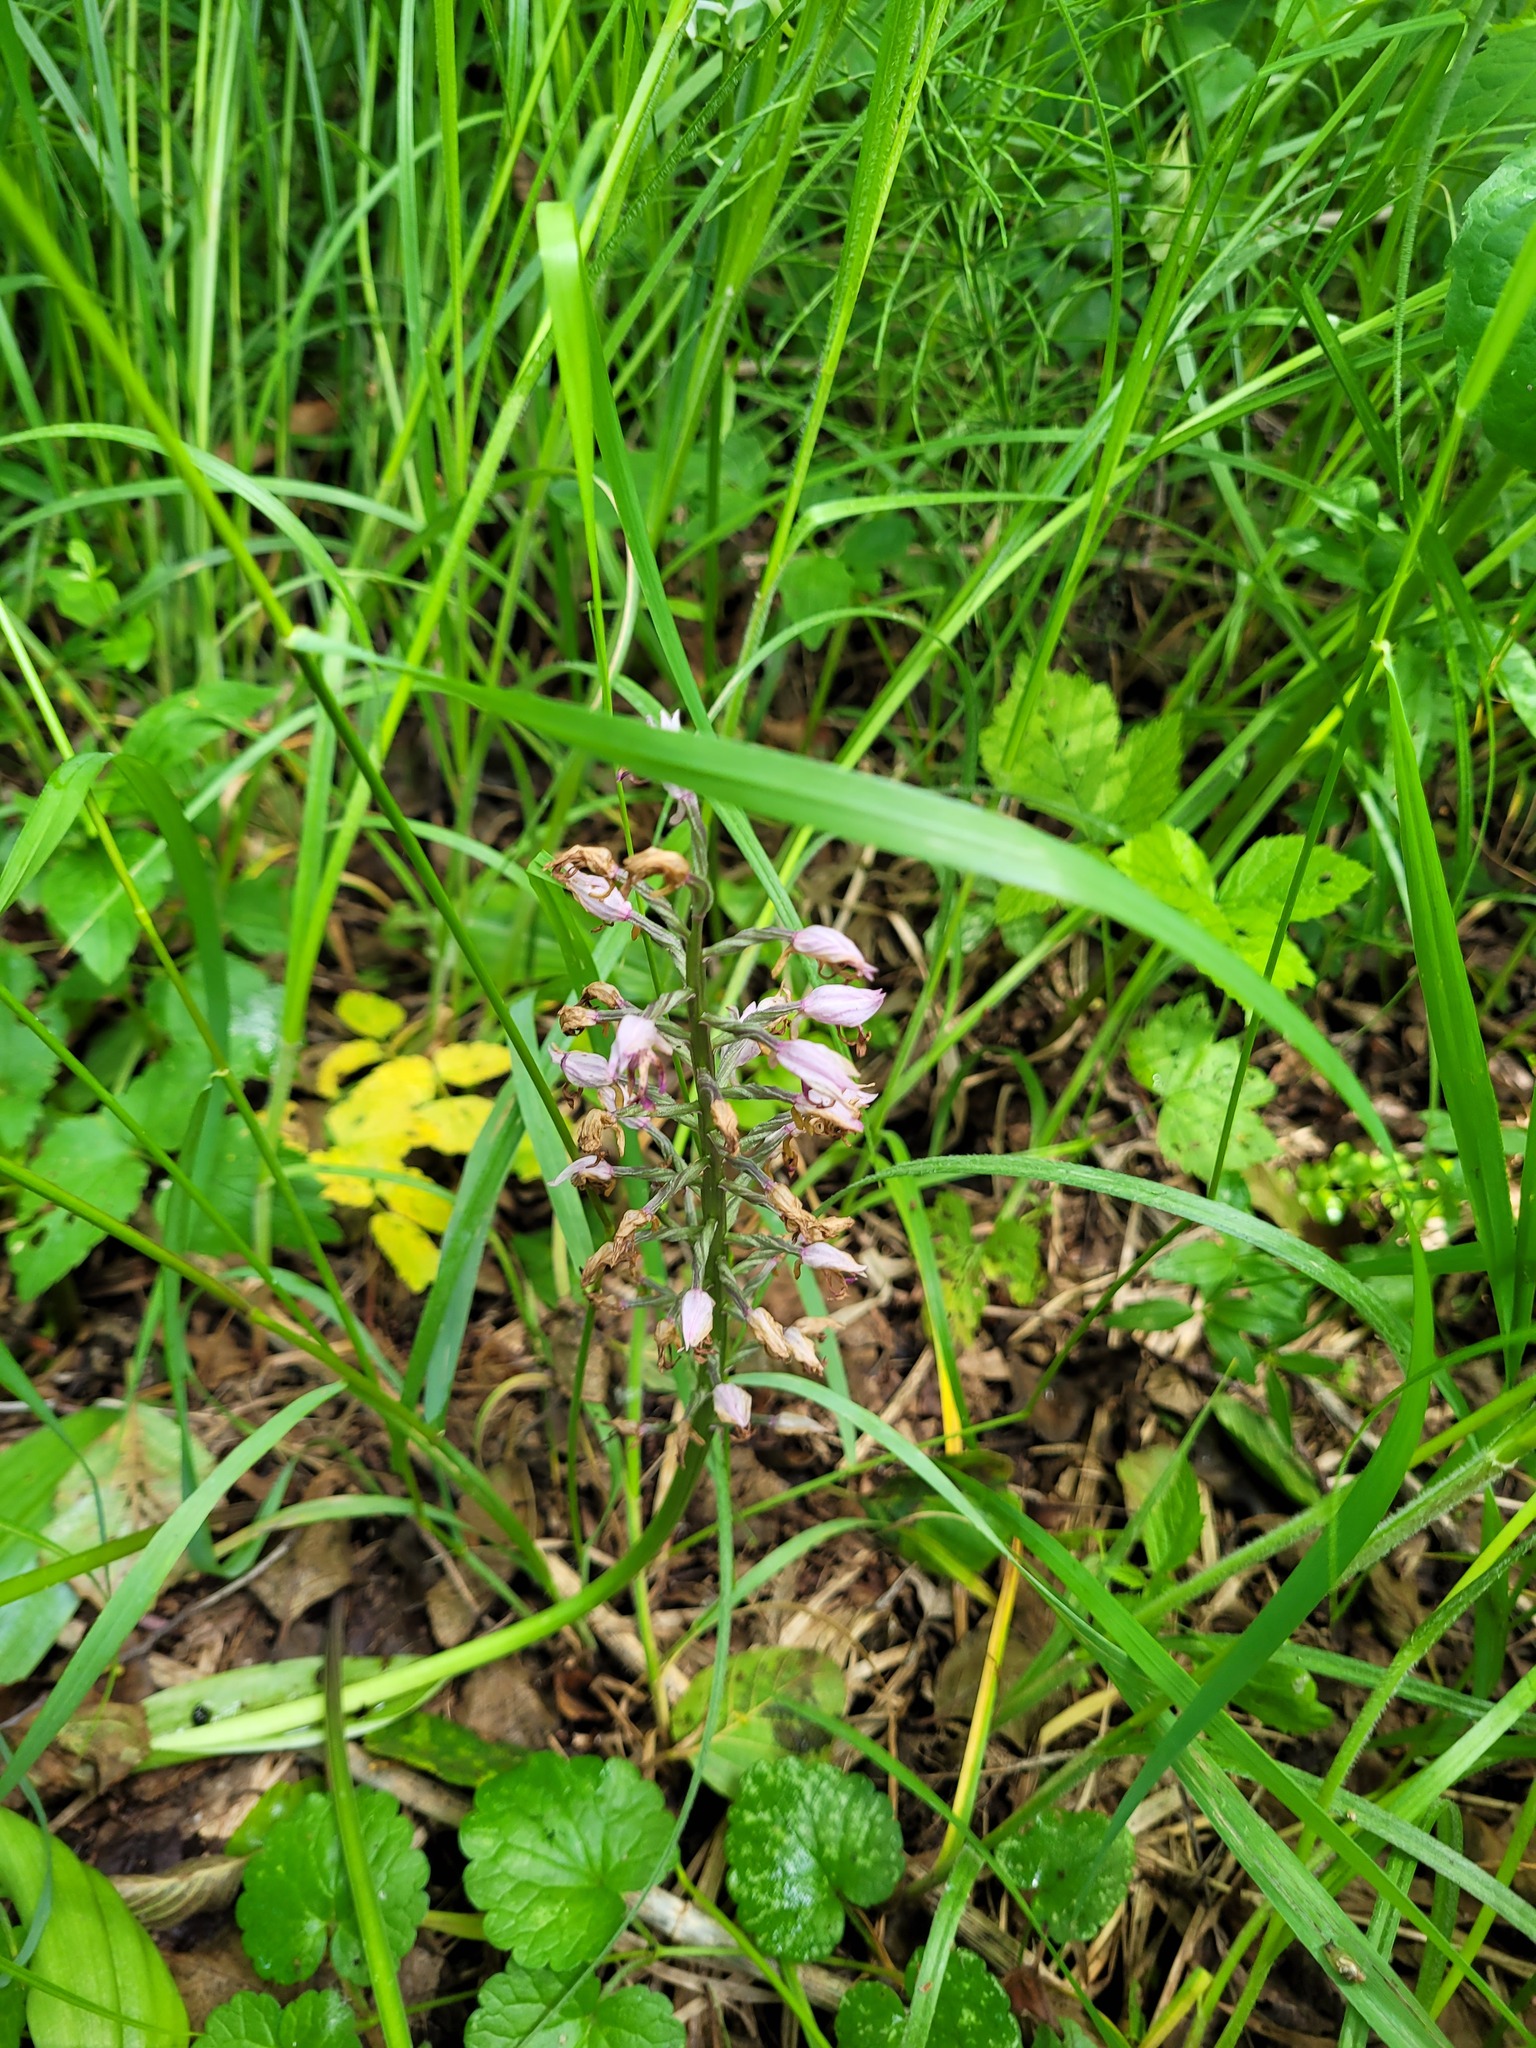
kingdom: Plantae
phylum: Tracheophyta
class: Liliopsida
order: Asparagales
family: Orchidaceae
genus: Orchis
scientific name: Orchis militaris
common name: Military orchid
